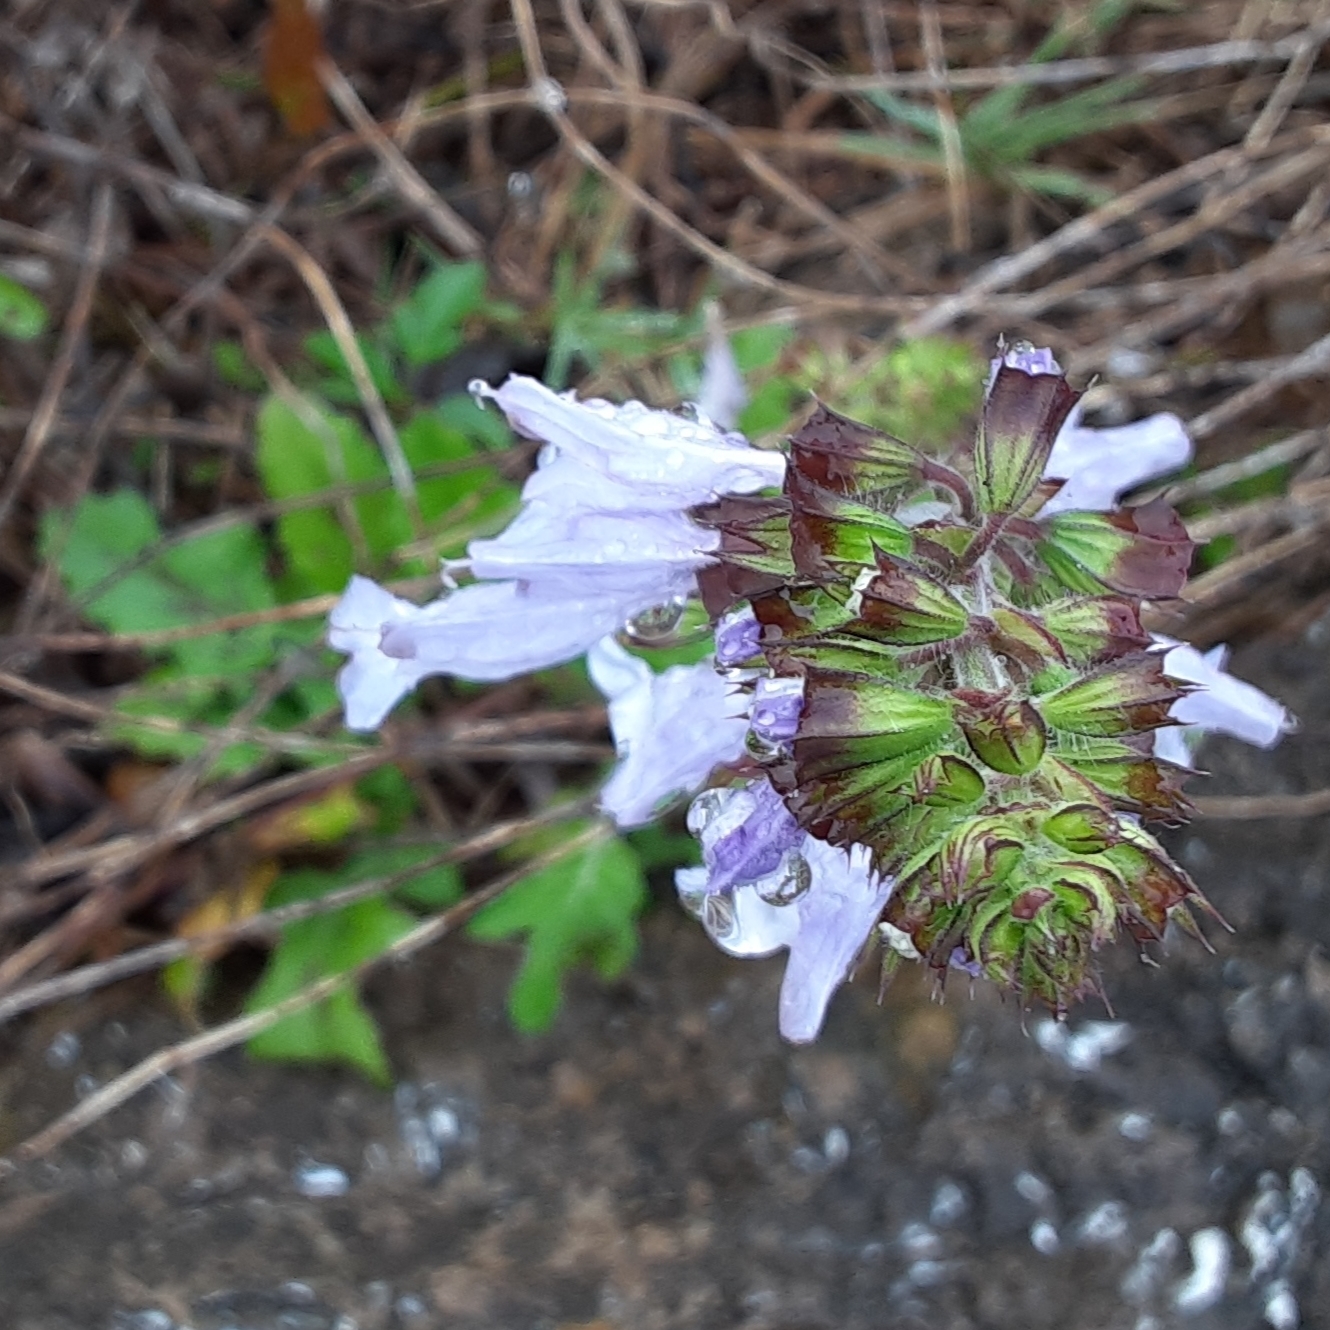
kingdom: Plantae
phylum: Tracheophyta
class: Magnoliopsida
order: Lamiales
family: Lamiaceae
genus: Salvia
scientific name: Salvia lyrata
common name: Cancerweed
